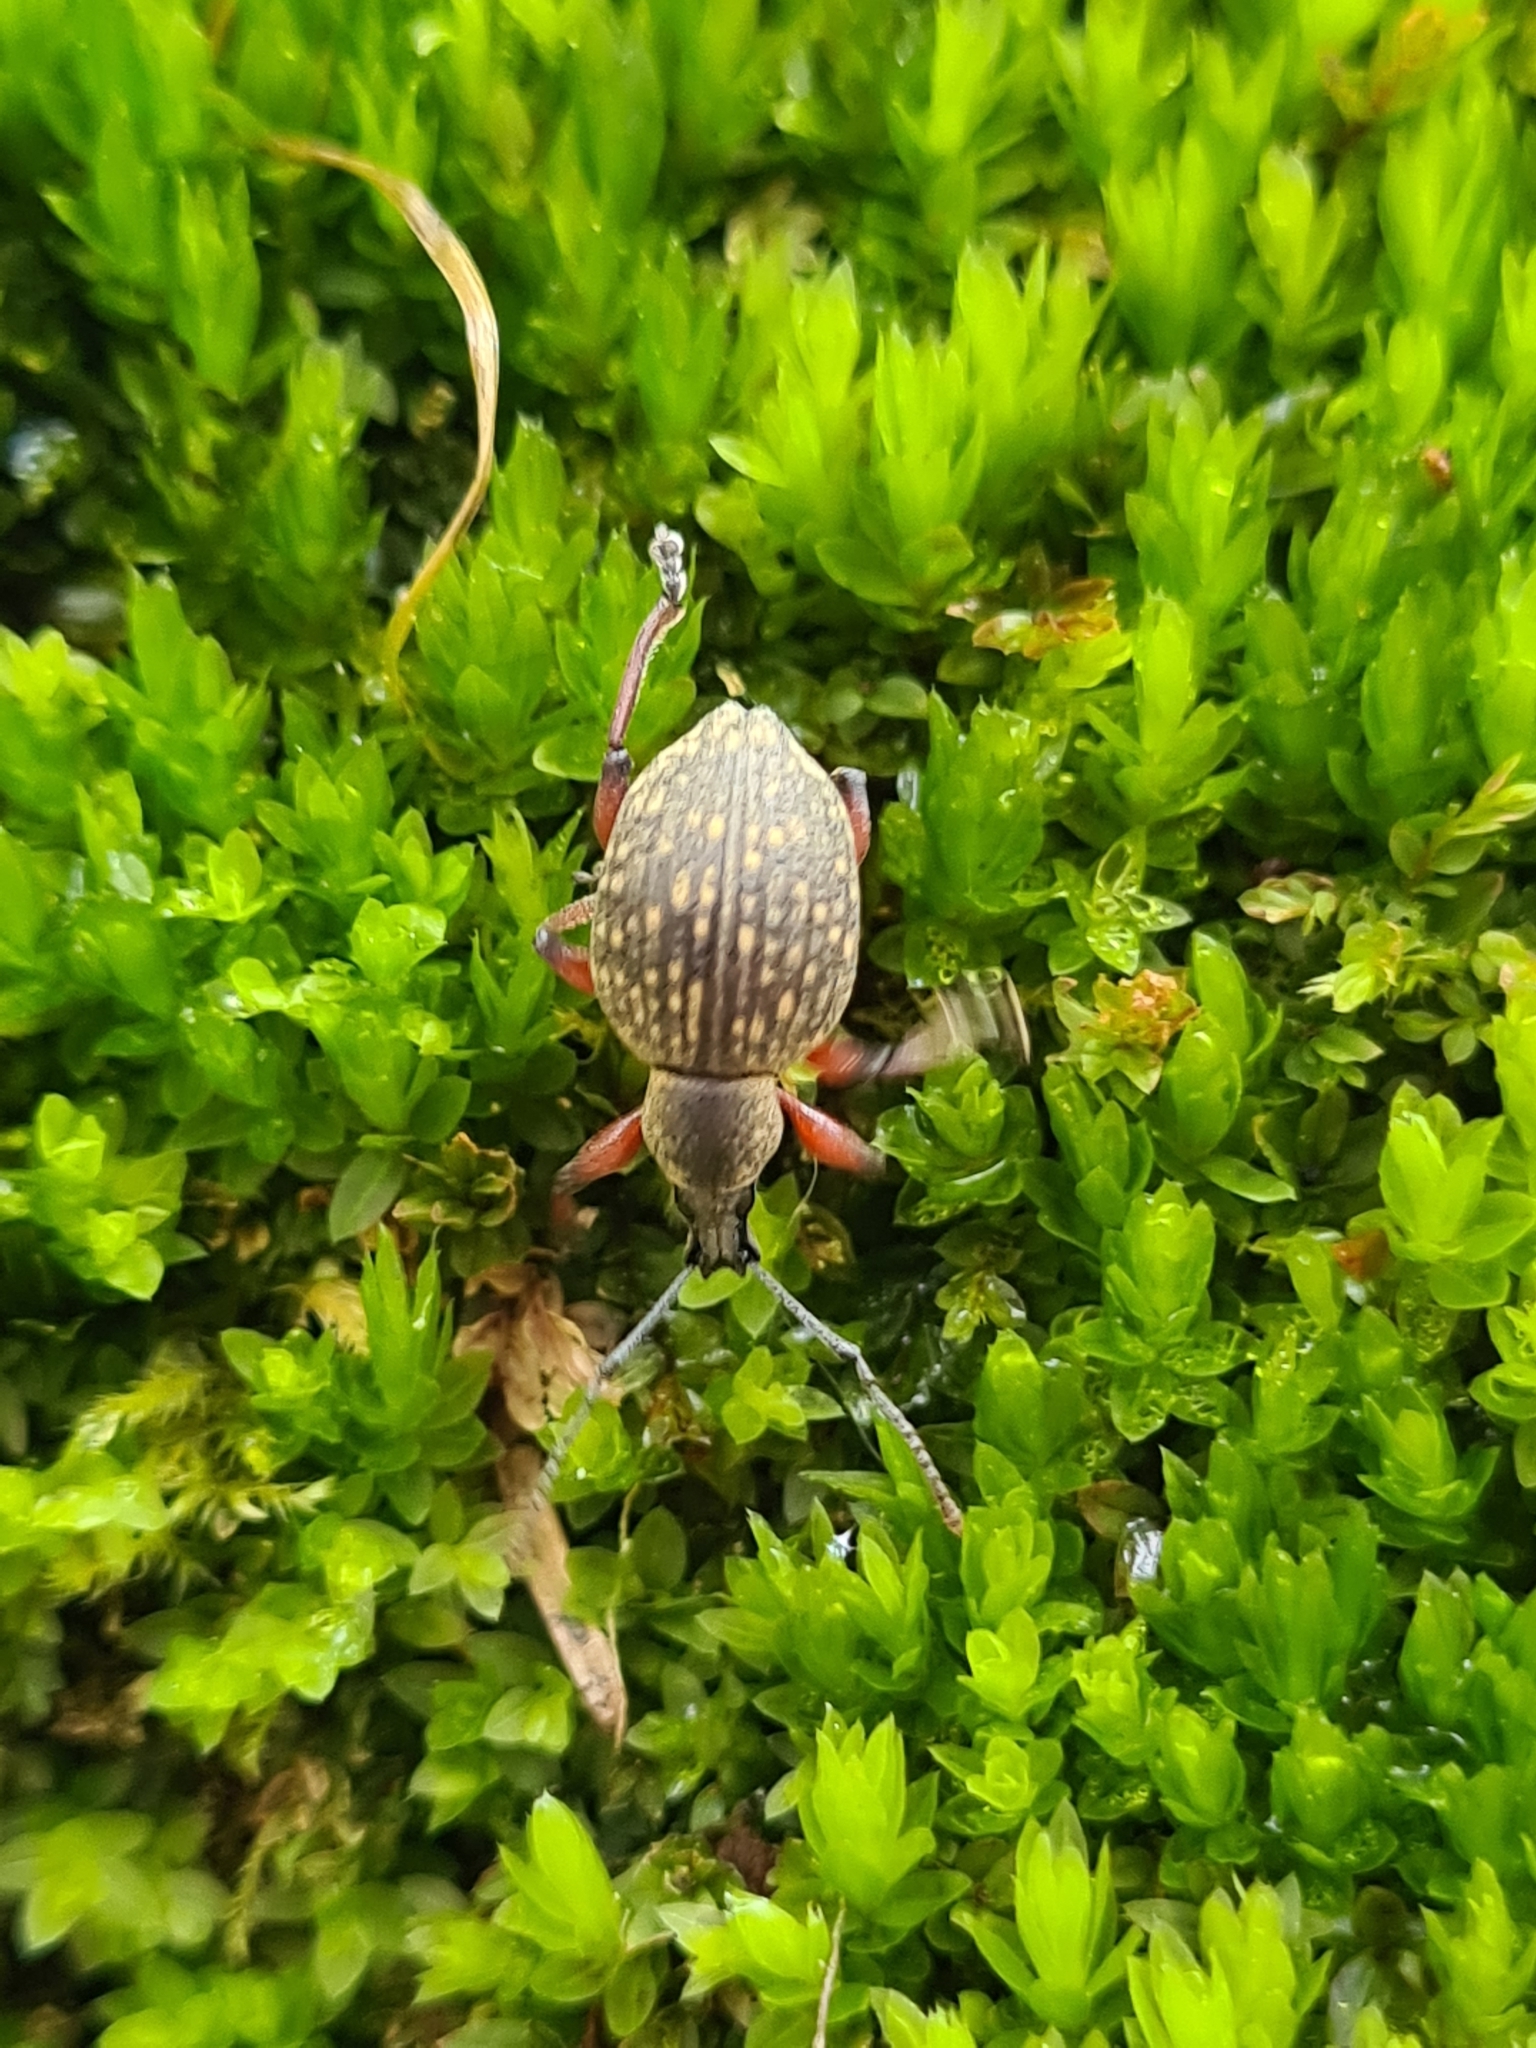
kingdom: Animalia
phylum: Arthropoda
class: Insecta
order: Coleoptera
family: Curculionidae
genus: Otiorhynchus
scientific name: Otiorhynchus armadillo
